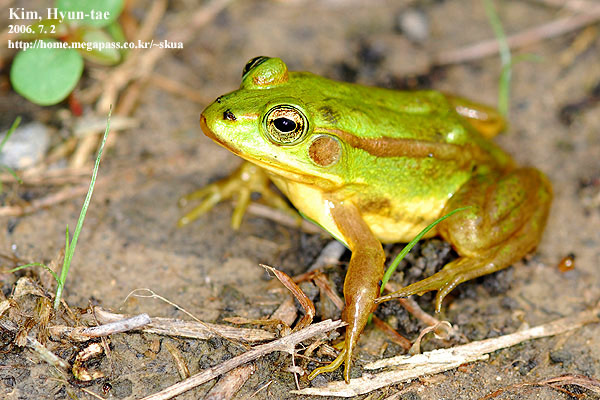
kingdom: Animalia
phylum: Chordata
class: Amphibia
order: Anura
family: Ranidae
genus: Pelophylax
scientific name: Pelophylax chosenicus
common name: Gold-spotted pond frog
